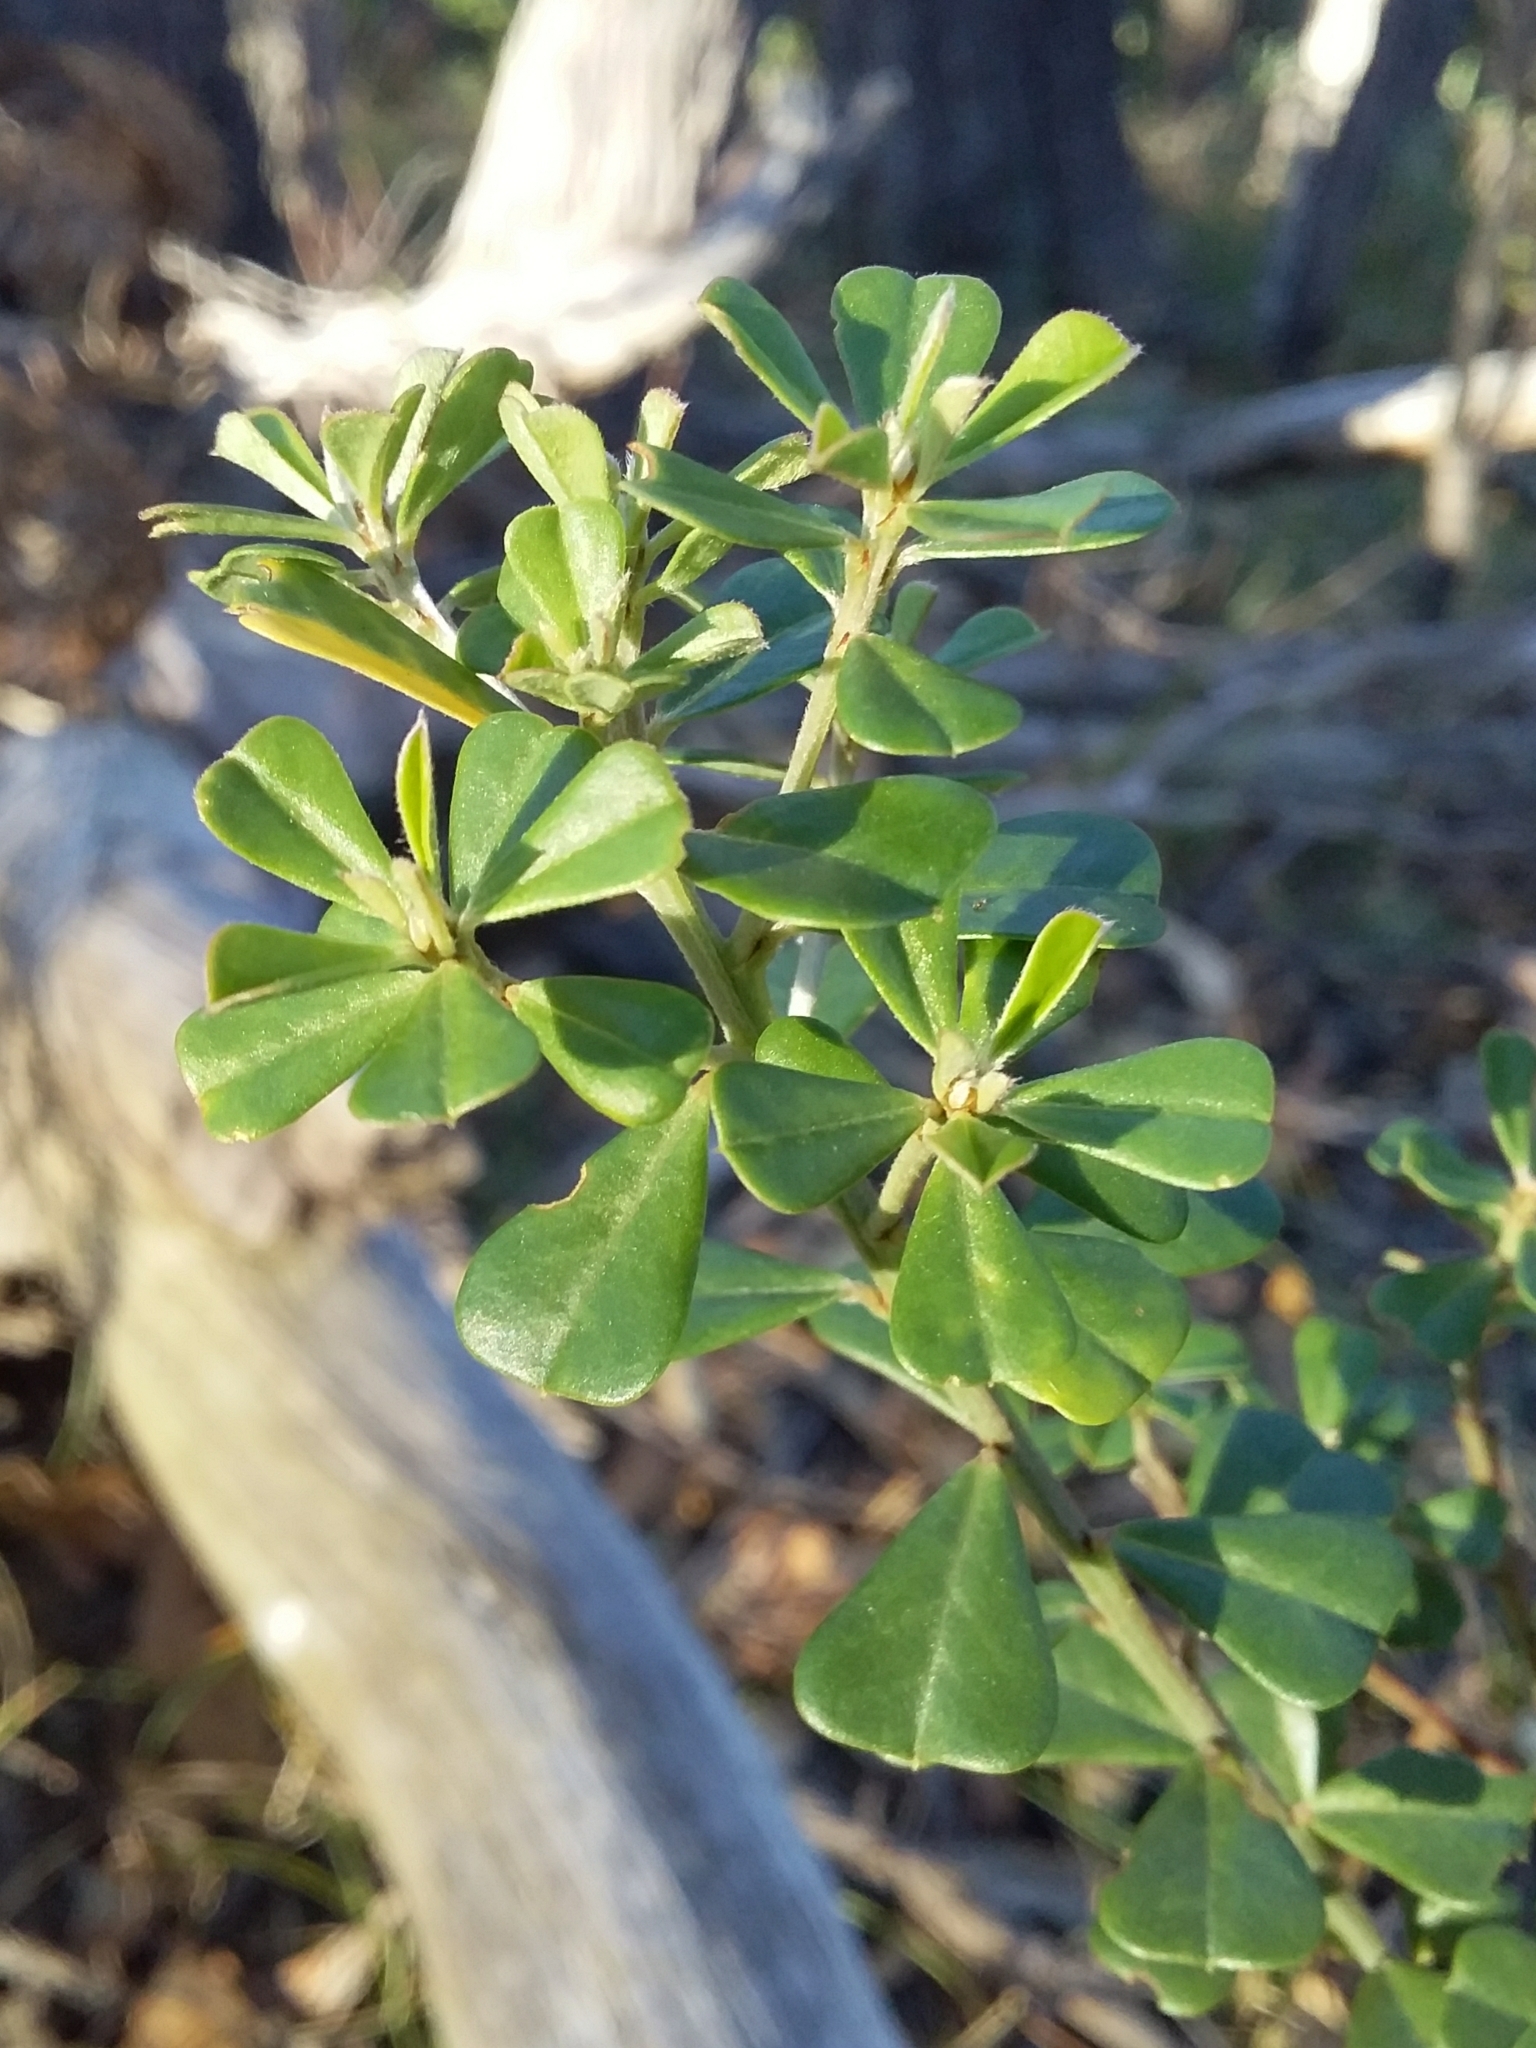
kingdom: Plantae
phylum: Tracheophyta
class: Magnoliopsida
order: Fabales
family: Fabaceae
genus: Pultenaea
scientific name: Pultenaea daphnoides
